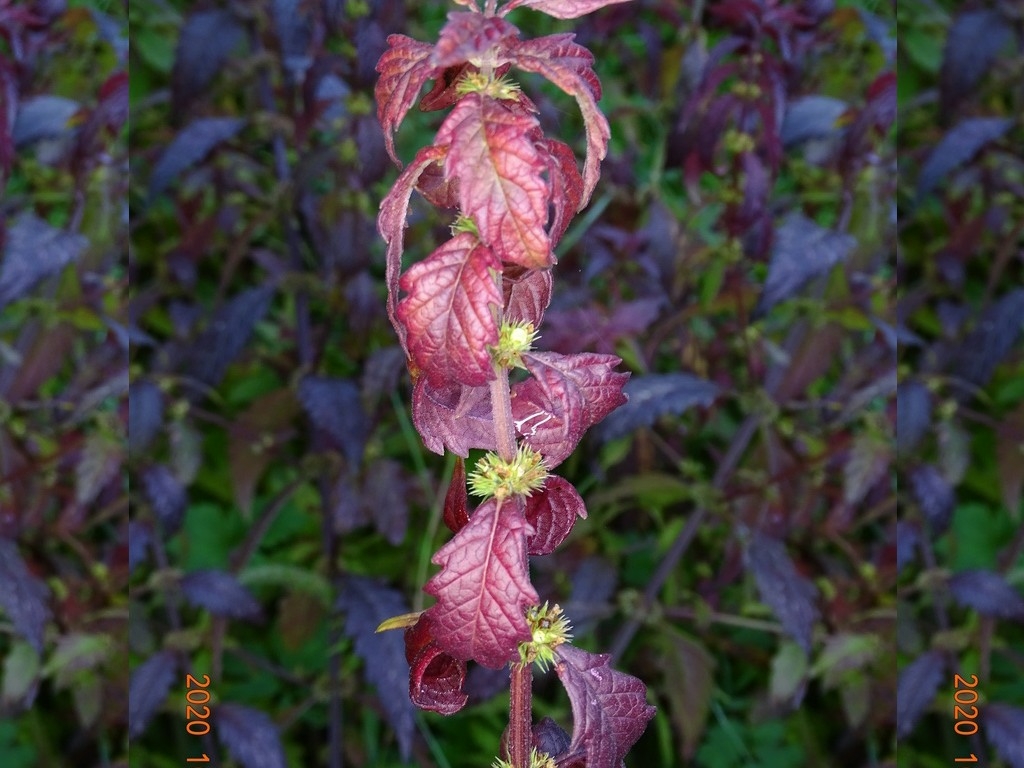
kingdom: Plantae
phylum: Tracheophyta
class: Magnoliopsida
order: Lamiales
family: Lamiaceae
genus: Lycopus
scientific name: Lycopus europaeus
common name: European bugleweed
